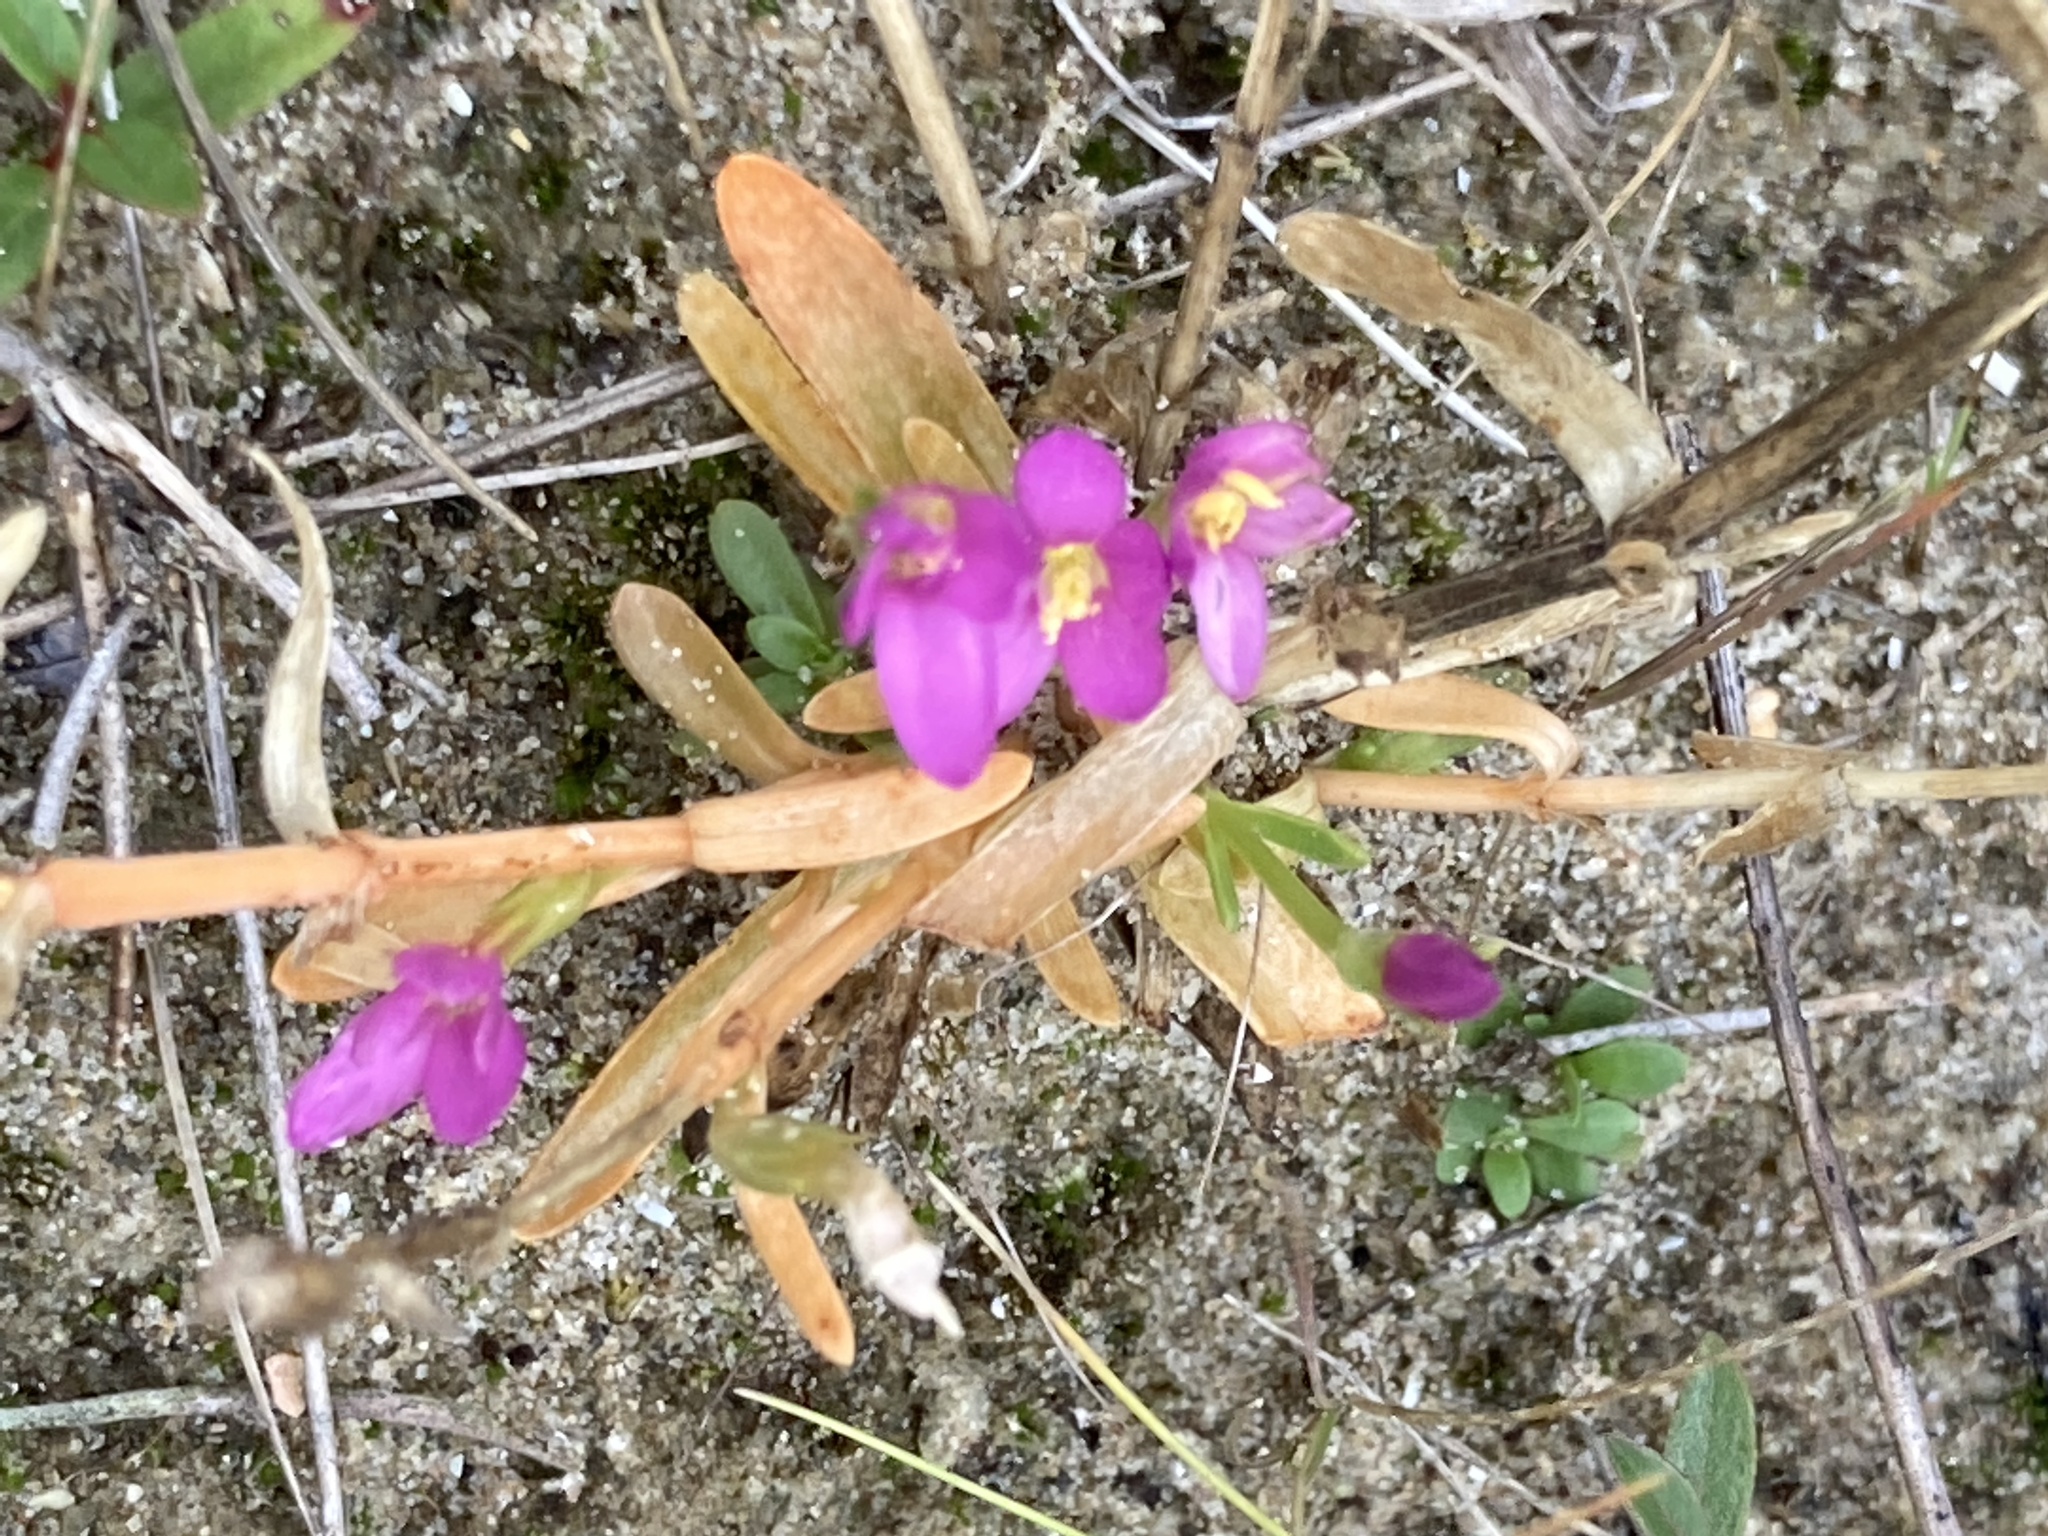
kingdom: Plantae
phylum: Tracheophyta
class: Magnoliopsida
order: Gentianales
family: Gentianaceae
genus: Centaurium
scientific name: Centaurium littorale
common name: Seaside centaury
